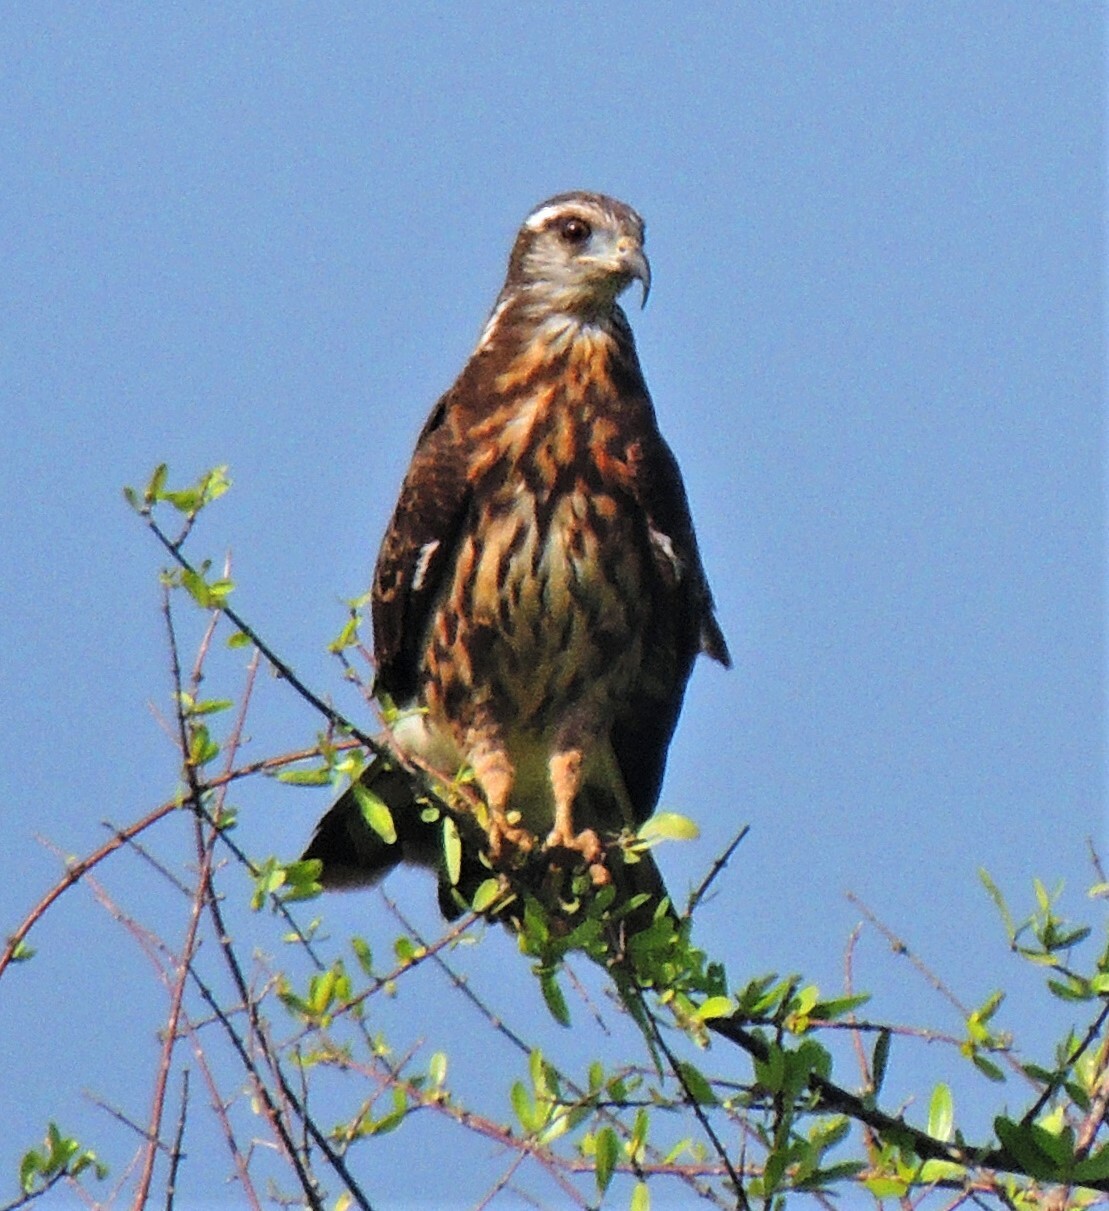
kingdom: Animalia
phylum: Chordata
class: Aves
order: Accipitriformes
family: Accipitridae
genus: Rostrhamus
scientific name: Rostrhamus sociabilis
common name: Snail kite
